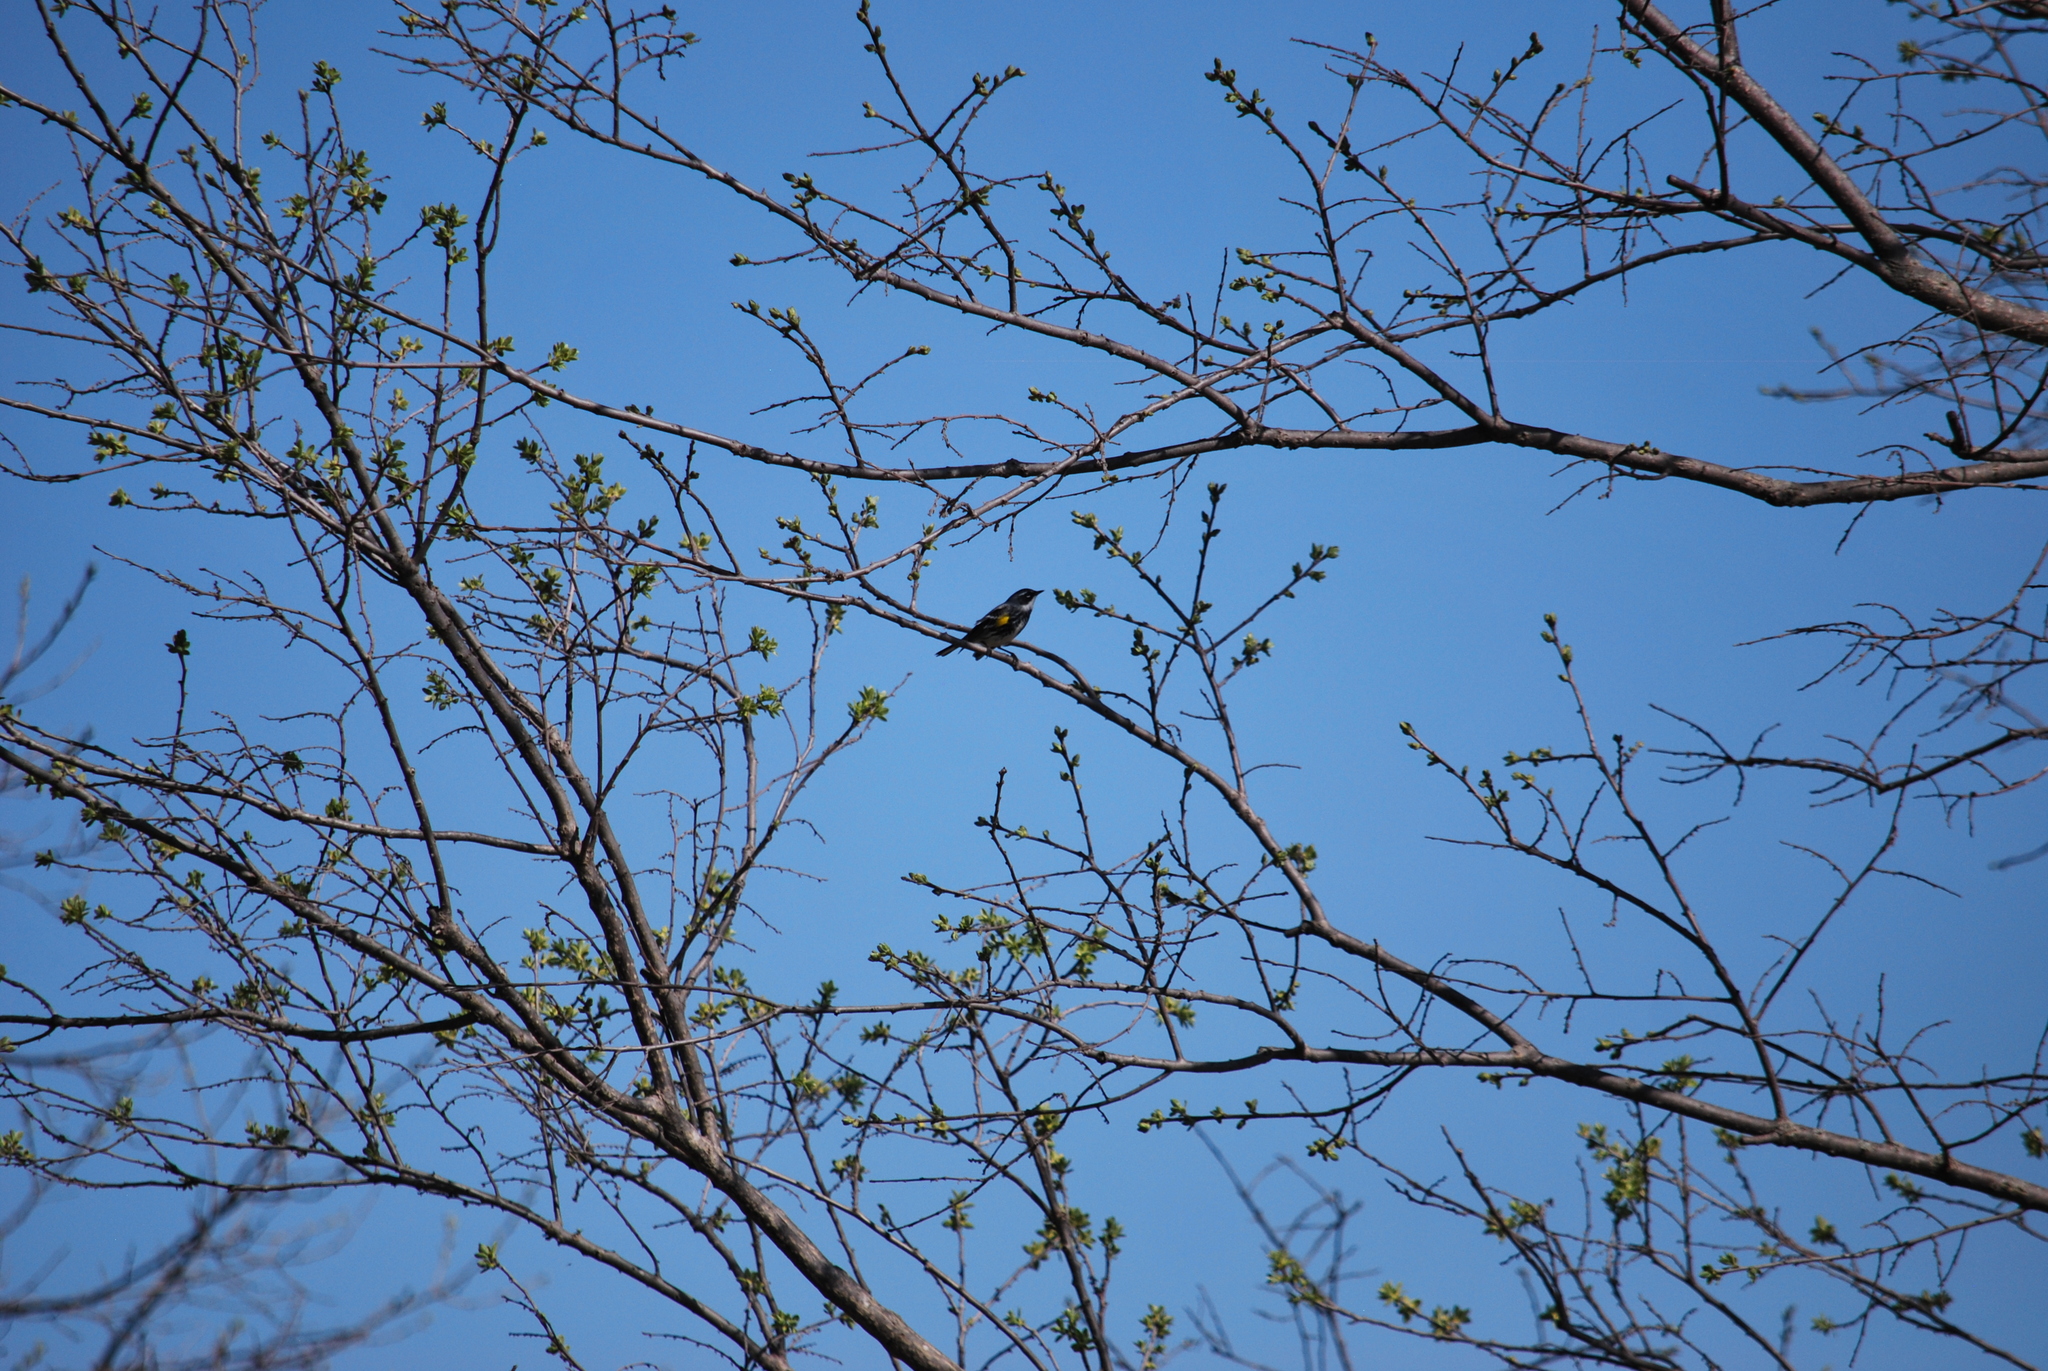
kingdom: Animalia
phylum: Chordata
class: Aves
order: Passeriformes
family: Parulidae
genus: Setophaga
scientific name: Setophaga coronata
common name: Myrtle warbler
